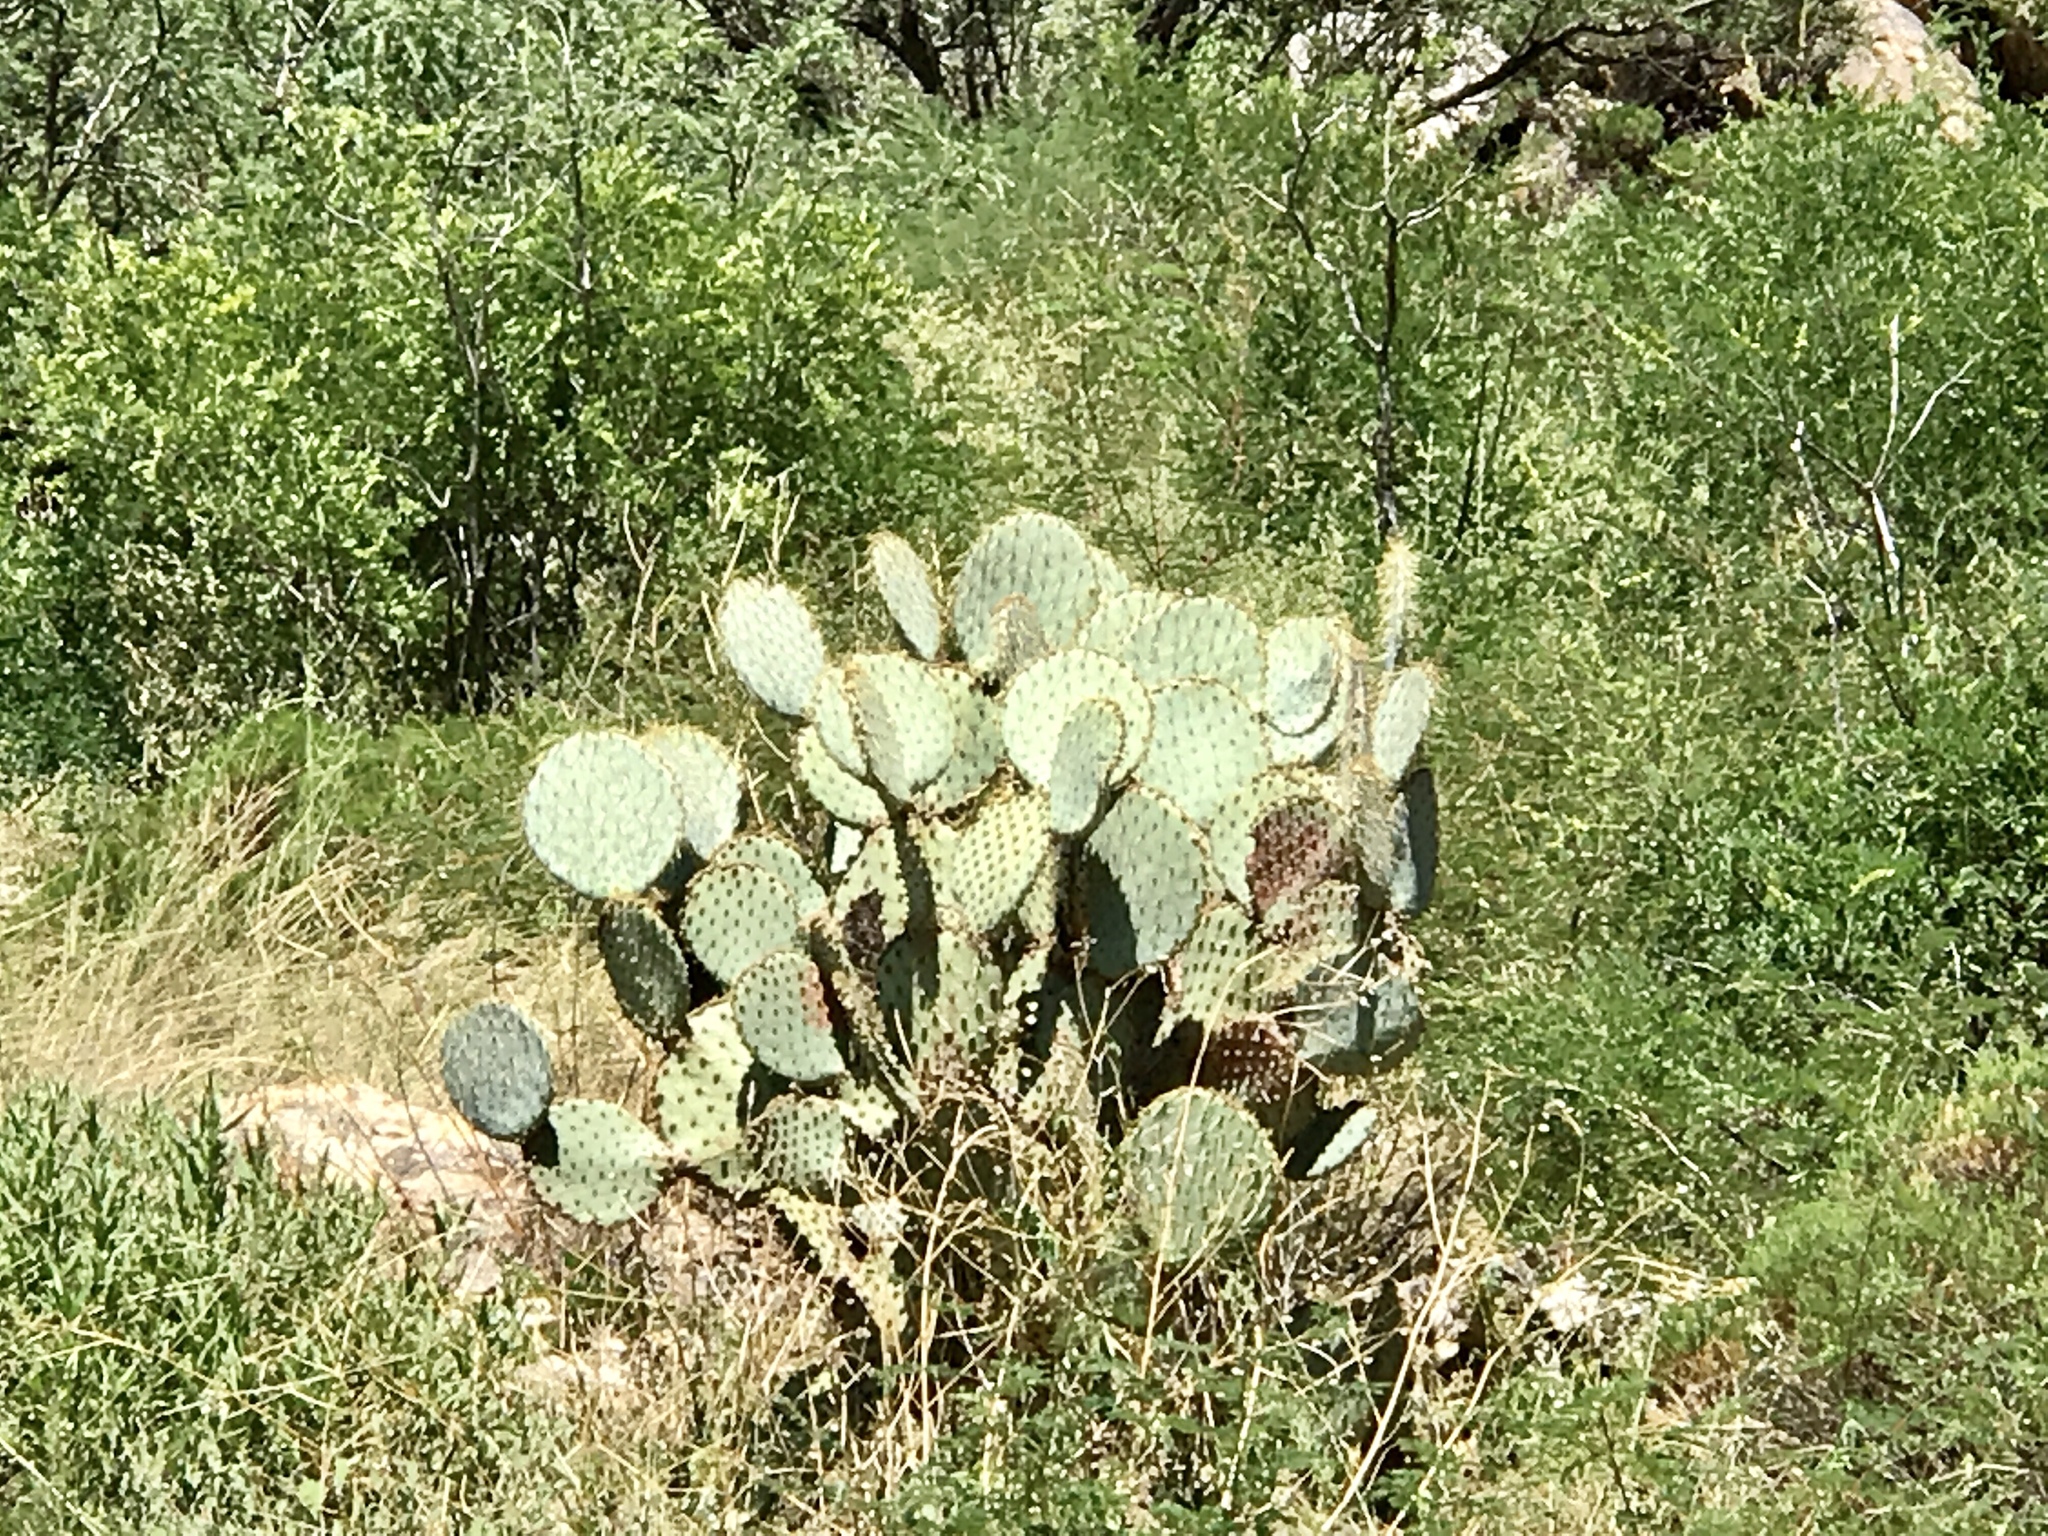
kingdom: Plantae
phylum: Tracheophyta
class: Magnoliopsida
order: Caryophyllales
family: Cactaceae
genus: Opuntia
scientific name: Opuntia gosseliniana
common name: Violet prickly-pear
